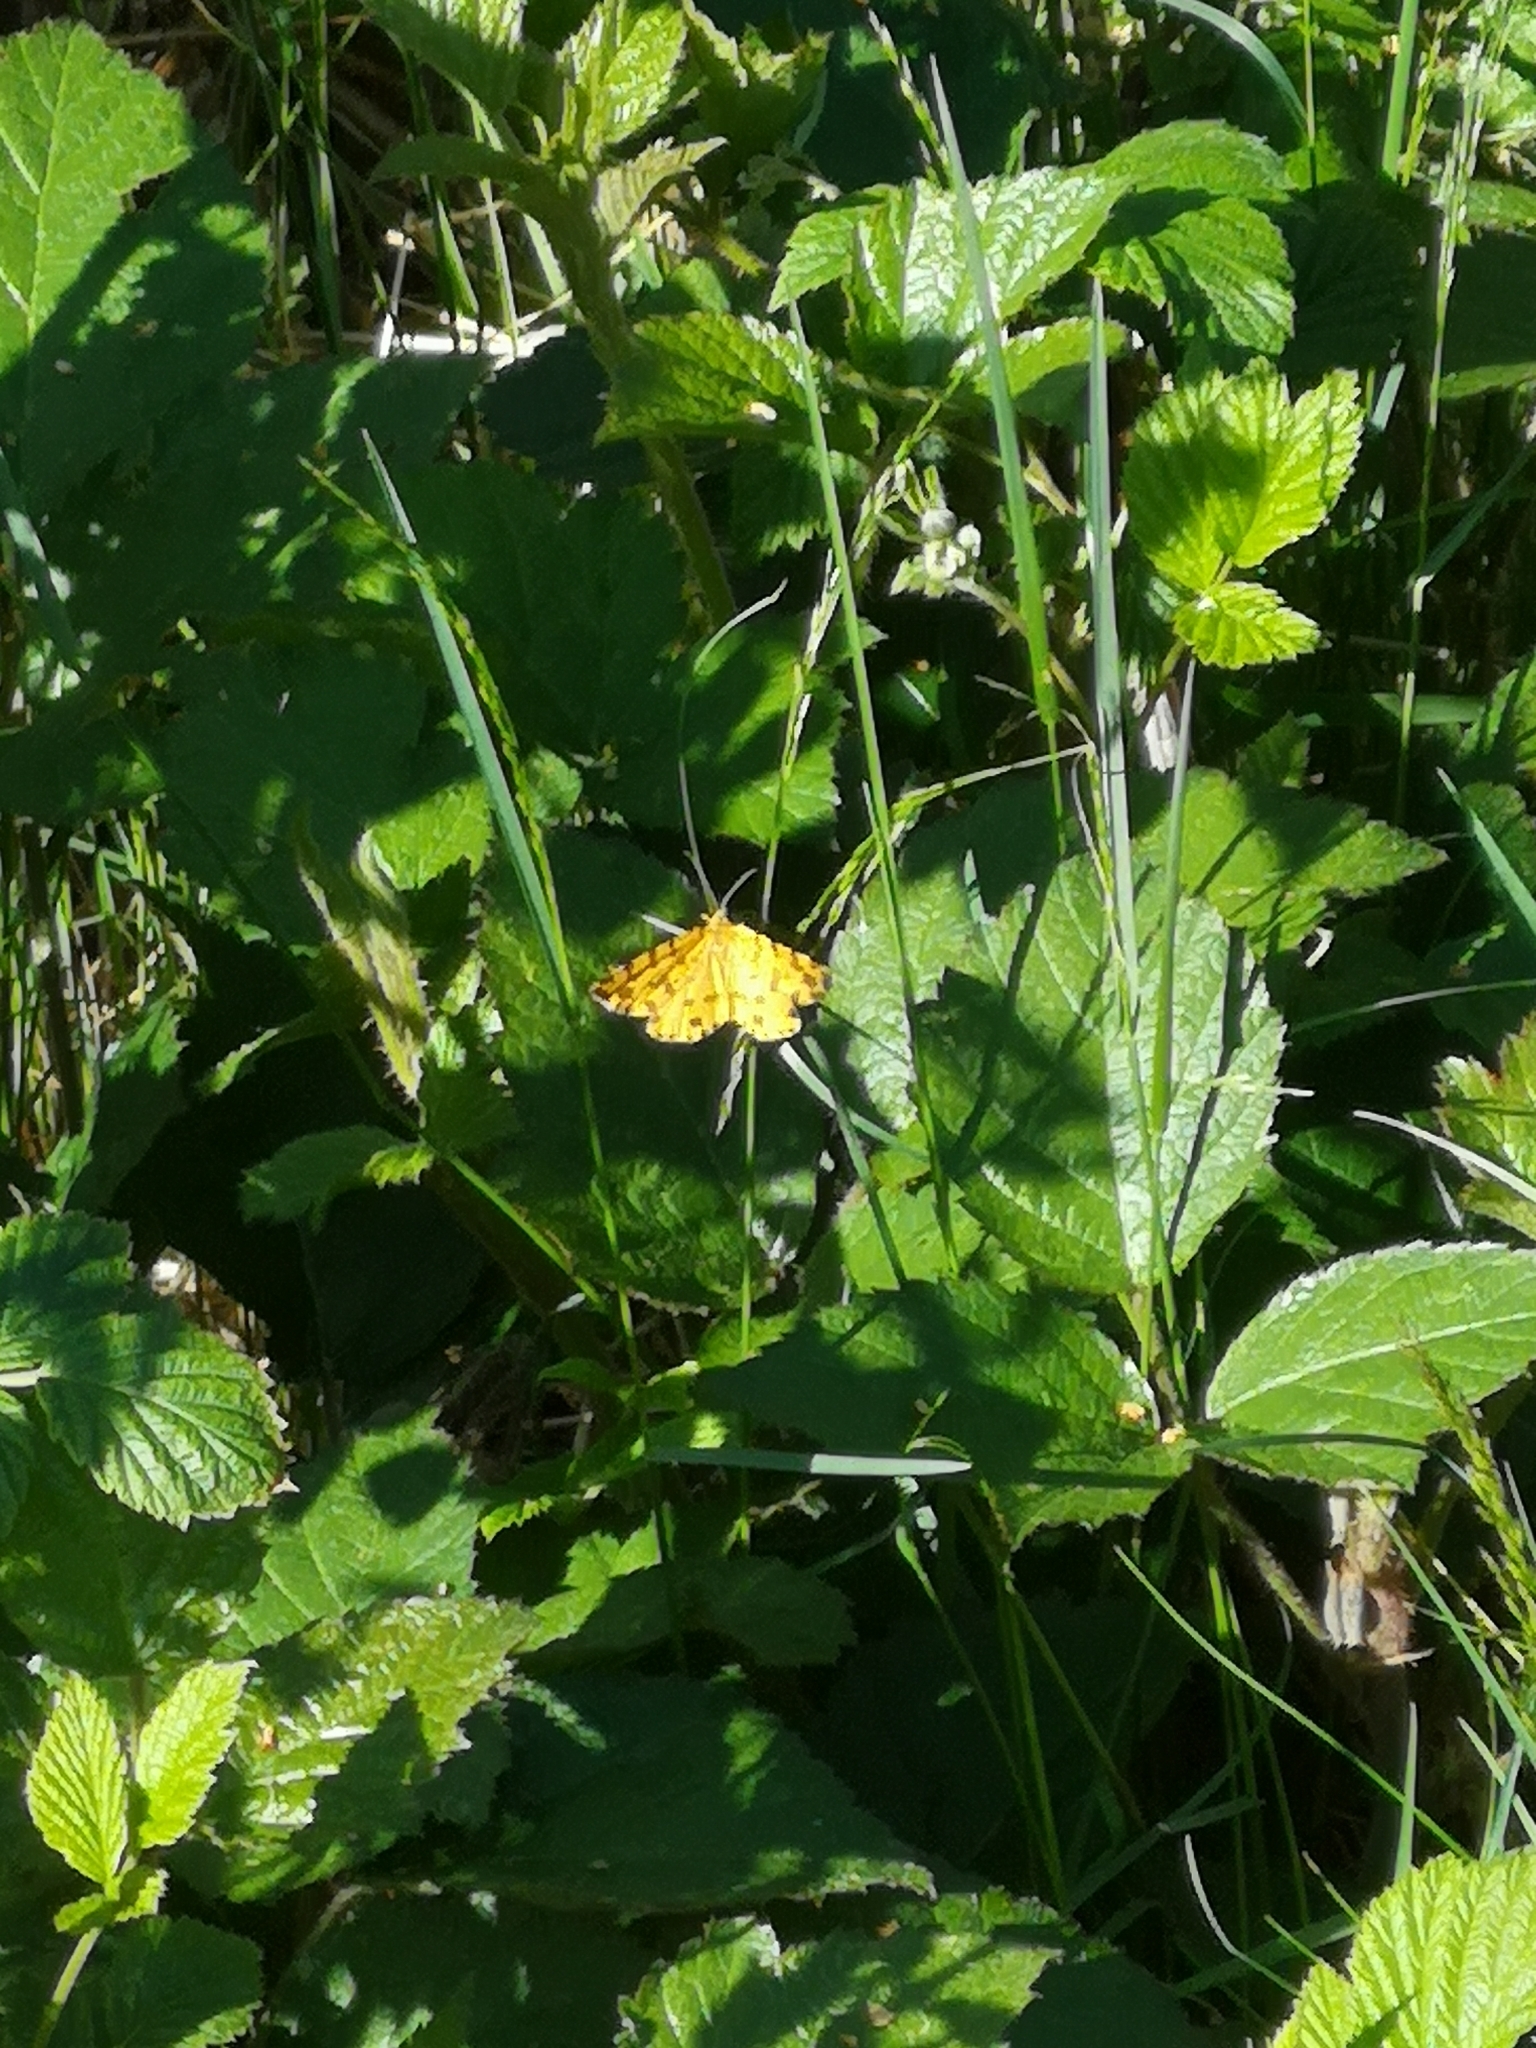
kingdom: Animalia
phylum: Arthropoda
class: Insecta
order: Lepidoptera
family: Geometridae
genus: Pseudopanthera
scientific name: Pseudopanthera macularia
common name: Speckled yellow
